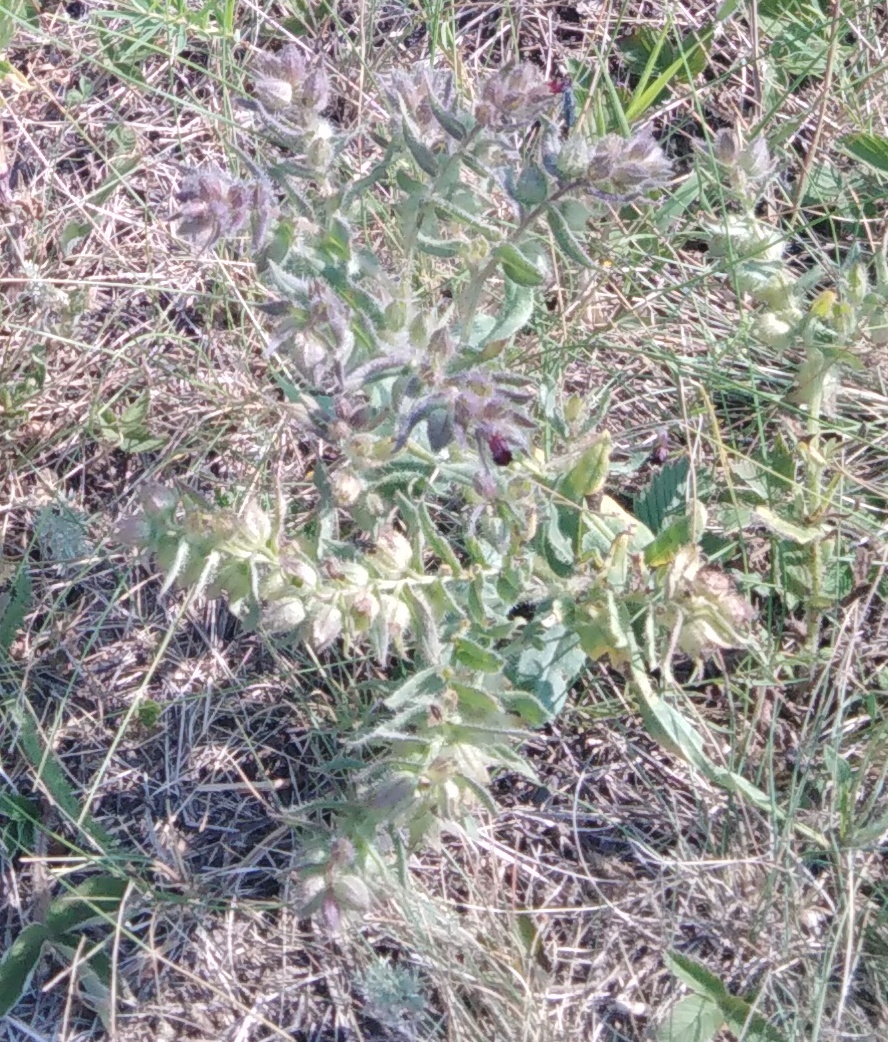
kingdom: Plantae
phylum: Tracheophyta
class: Magnoliopsida
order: Boraginales
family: Boraginaceae
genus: Nonea
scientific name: Nonea pulla
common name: Brown nonea
